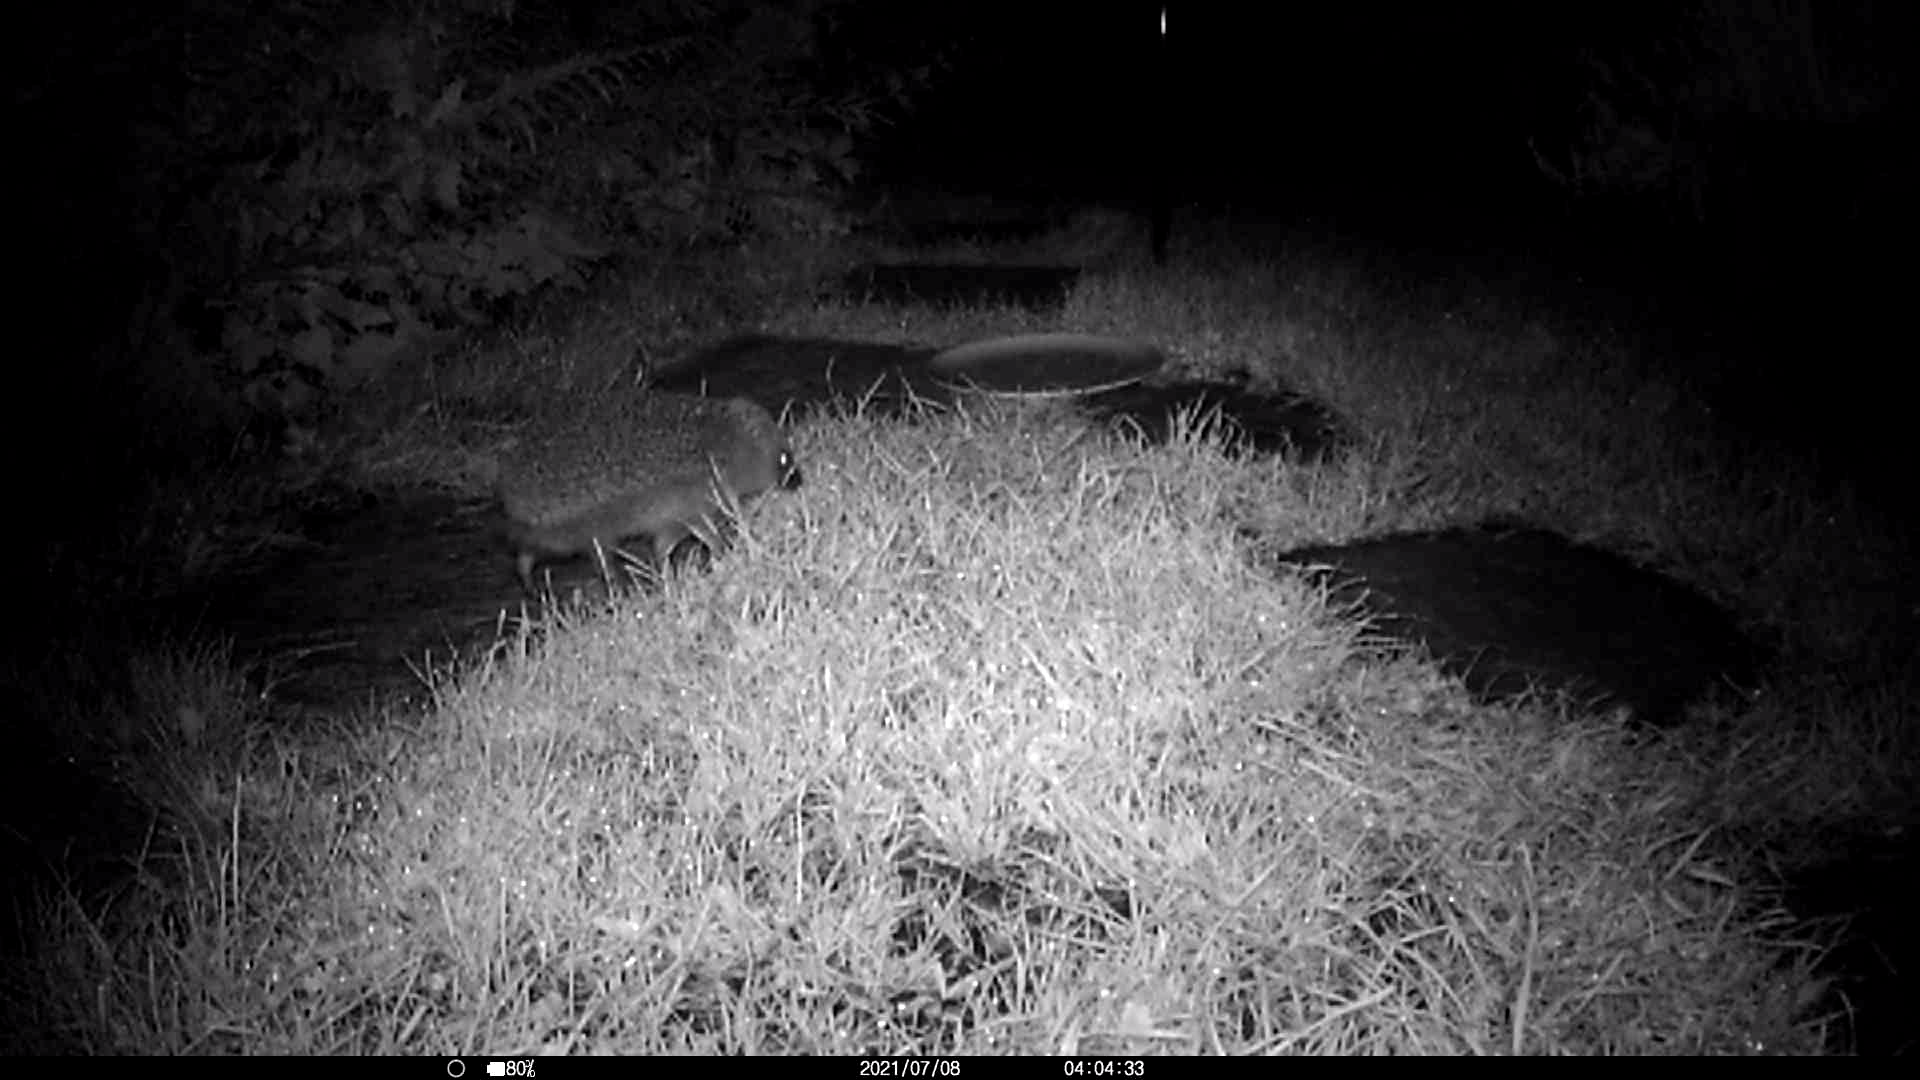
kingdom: Animalia
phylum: Chordata
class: Mammalia
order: Erinaceomorpha
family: Erinaceidae
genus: Erinaceus
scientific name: Erinaceus europaeus
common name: West european hedgehog
